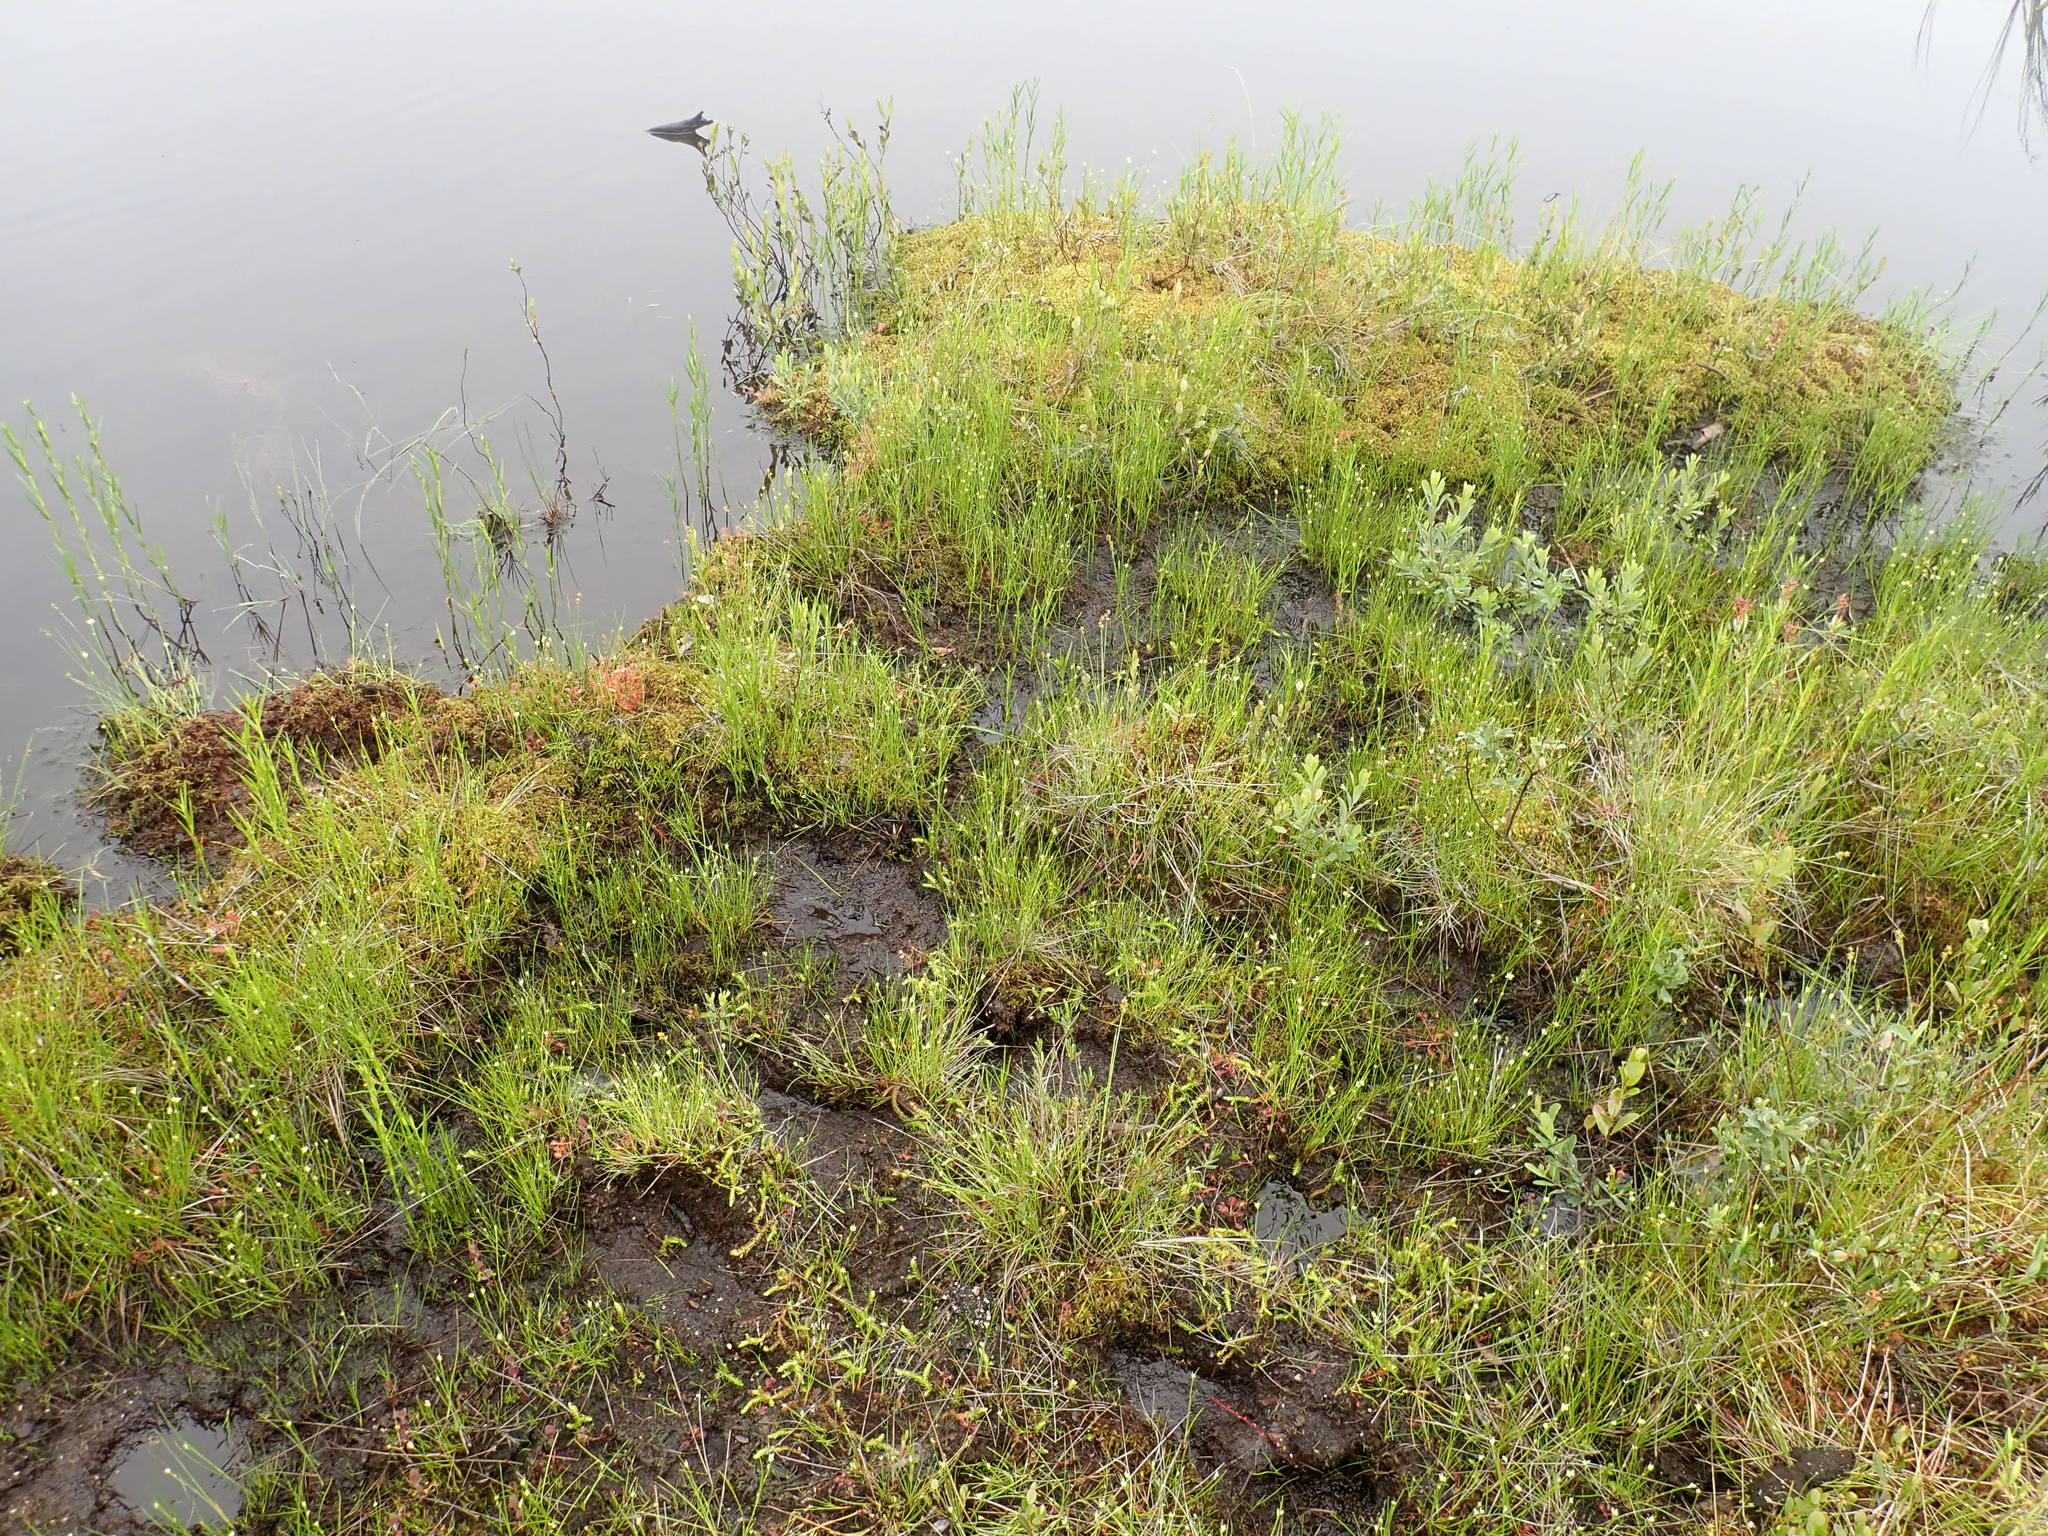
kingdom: Plantae
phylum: Tracheophyta
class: Lycopodiopsida
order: Lycopodiales
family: Lycopodiaceae
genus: Lycopodiella
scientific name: Lycopodiella inundata
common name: Marsh clubmoss
